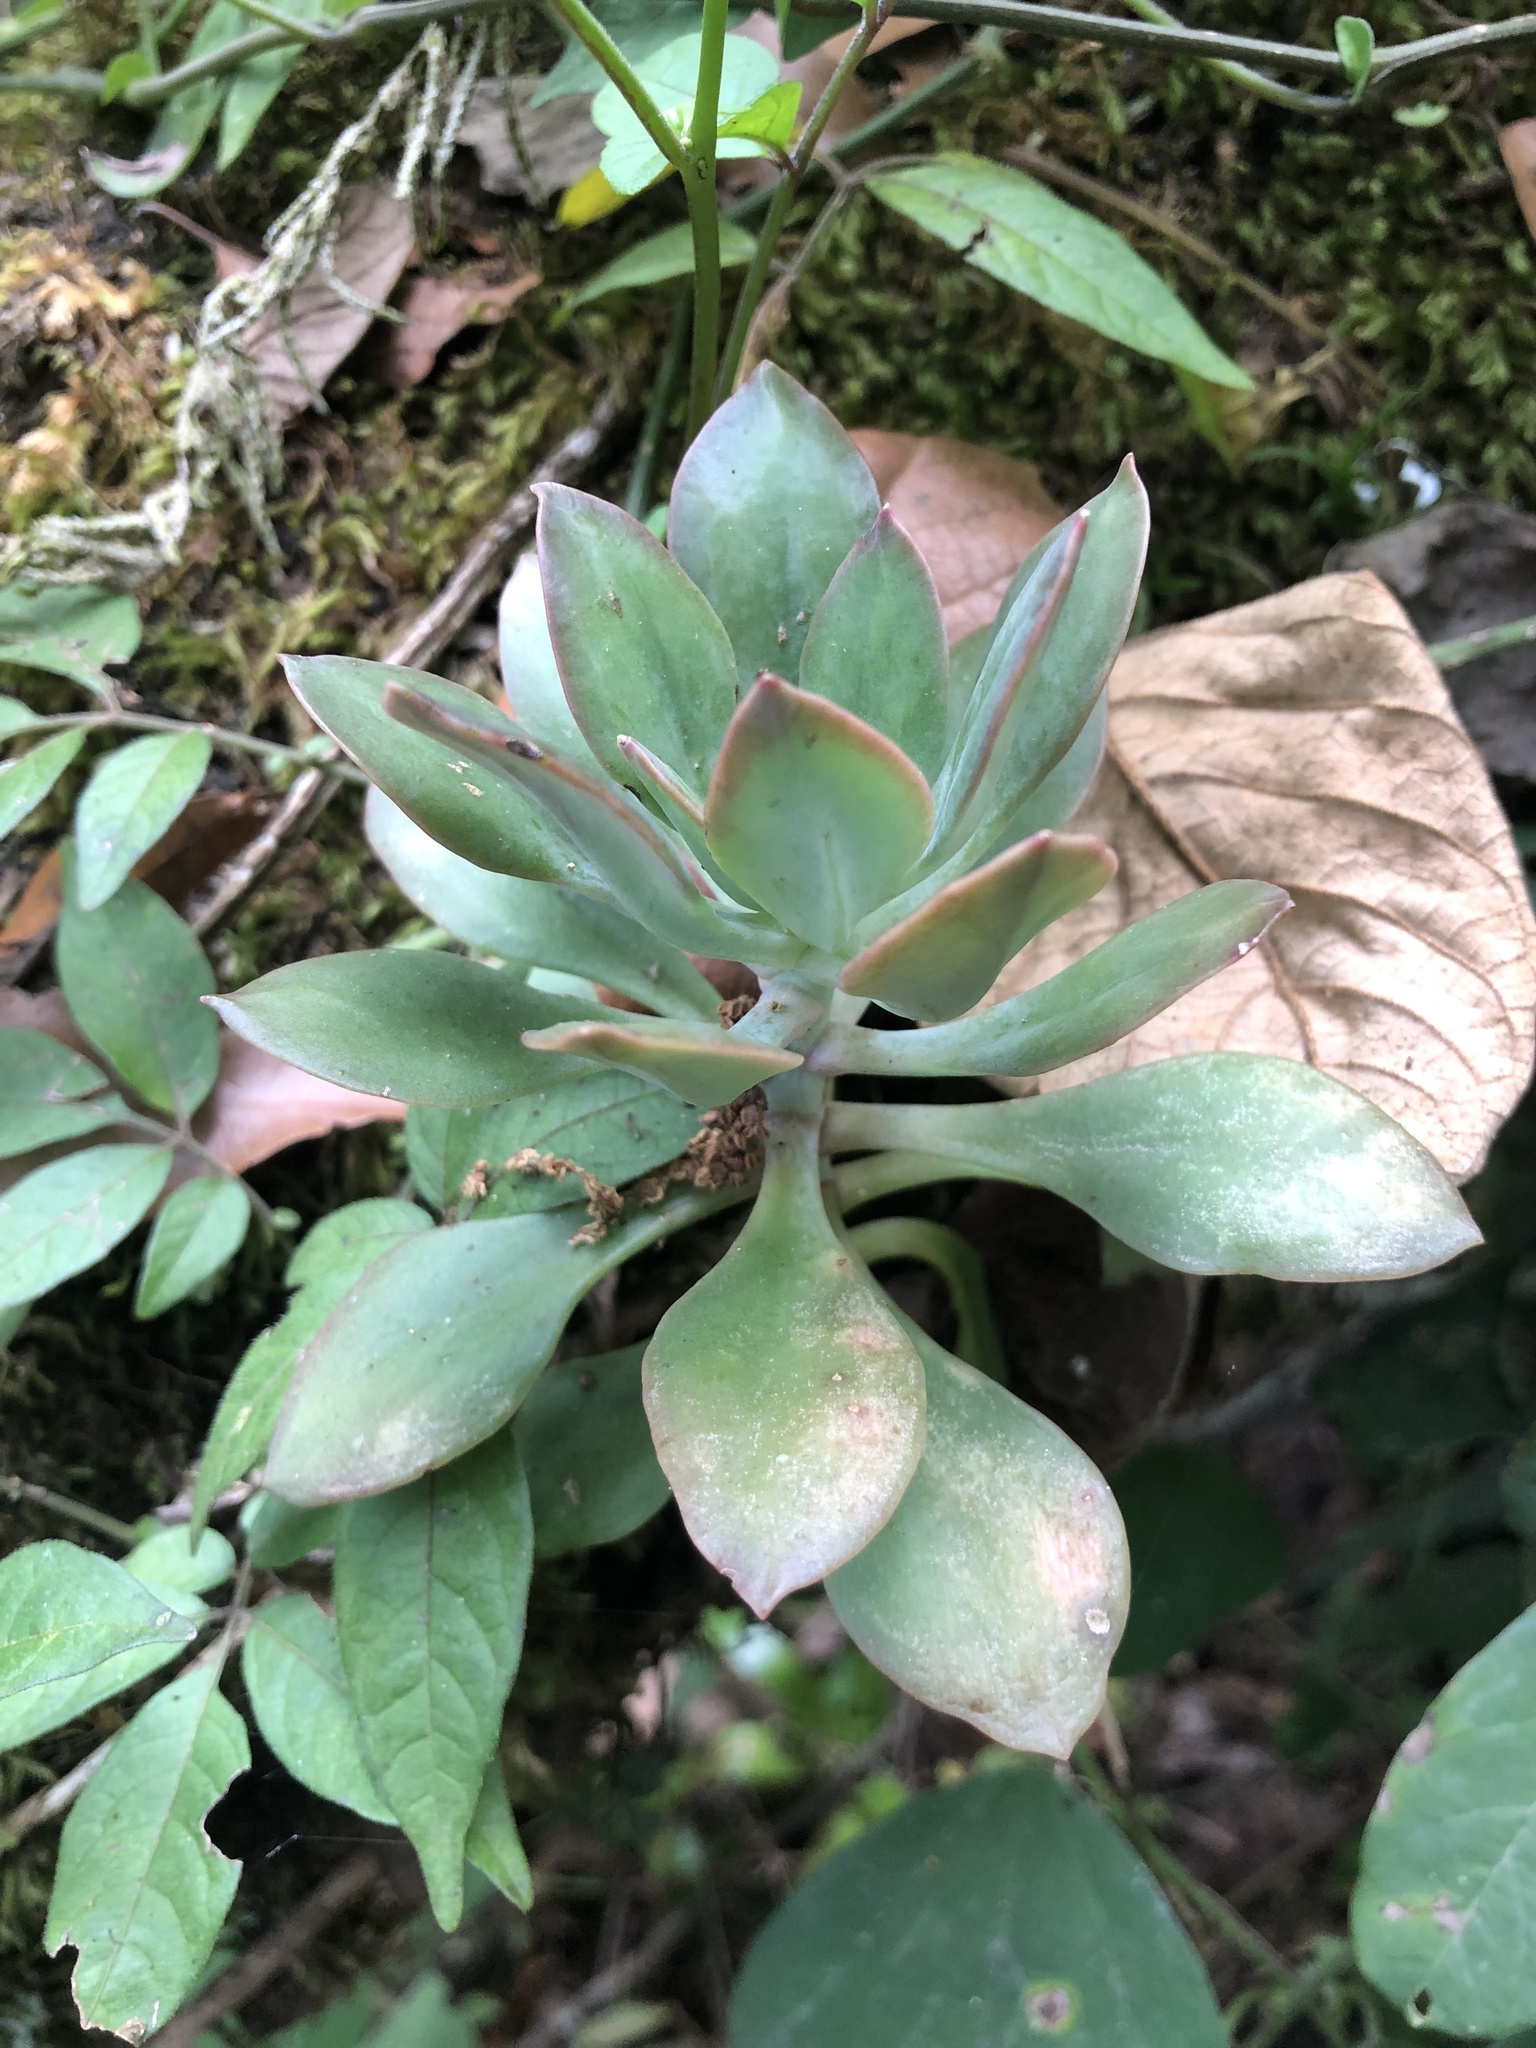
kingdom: Plantae
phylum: Tracheophyta
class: Magnoliopsida
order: Saxifragales
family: Crassulaceae
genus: Echeveria
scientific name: Echeveria rosea
